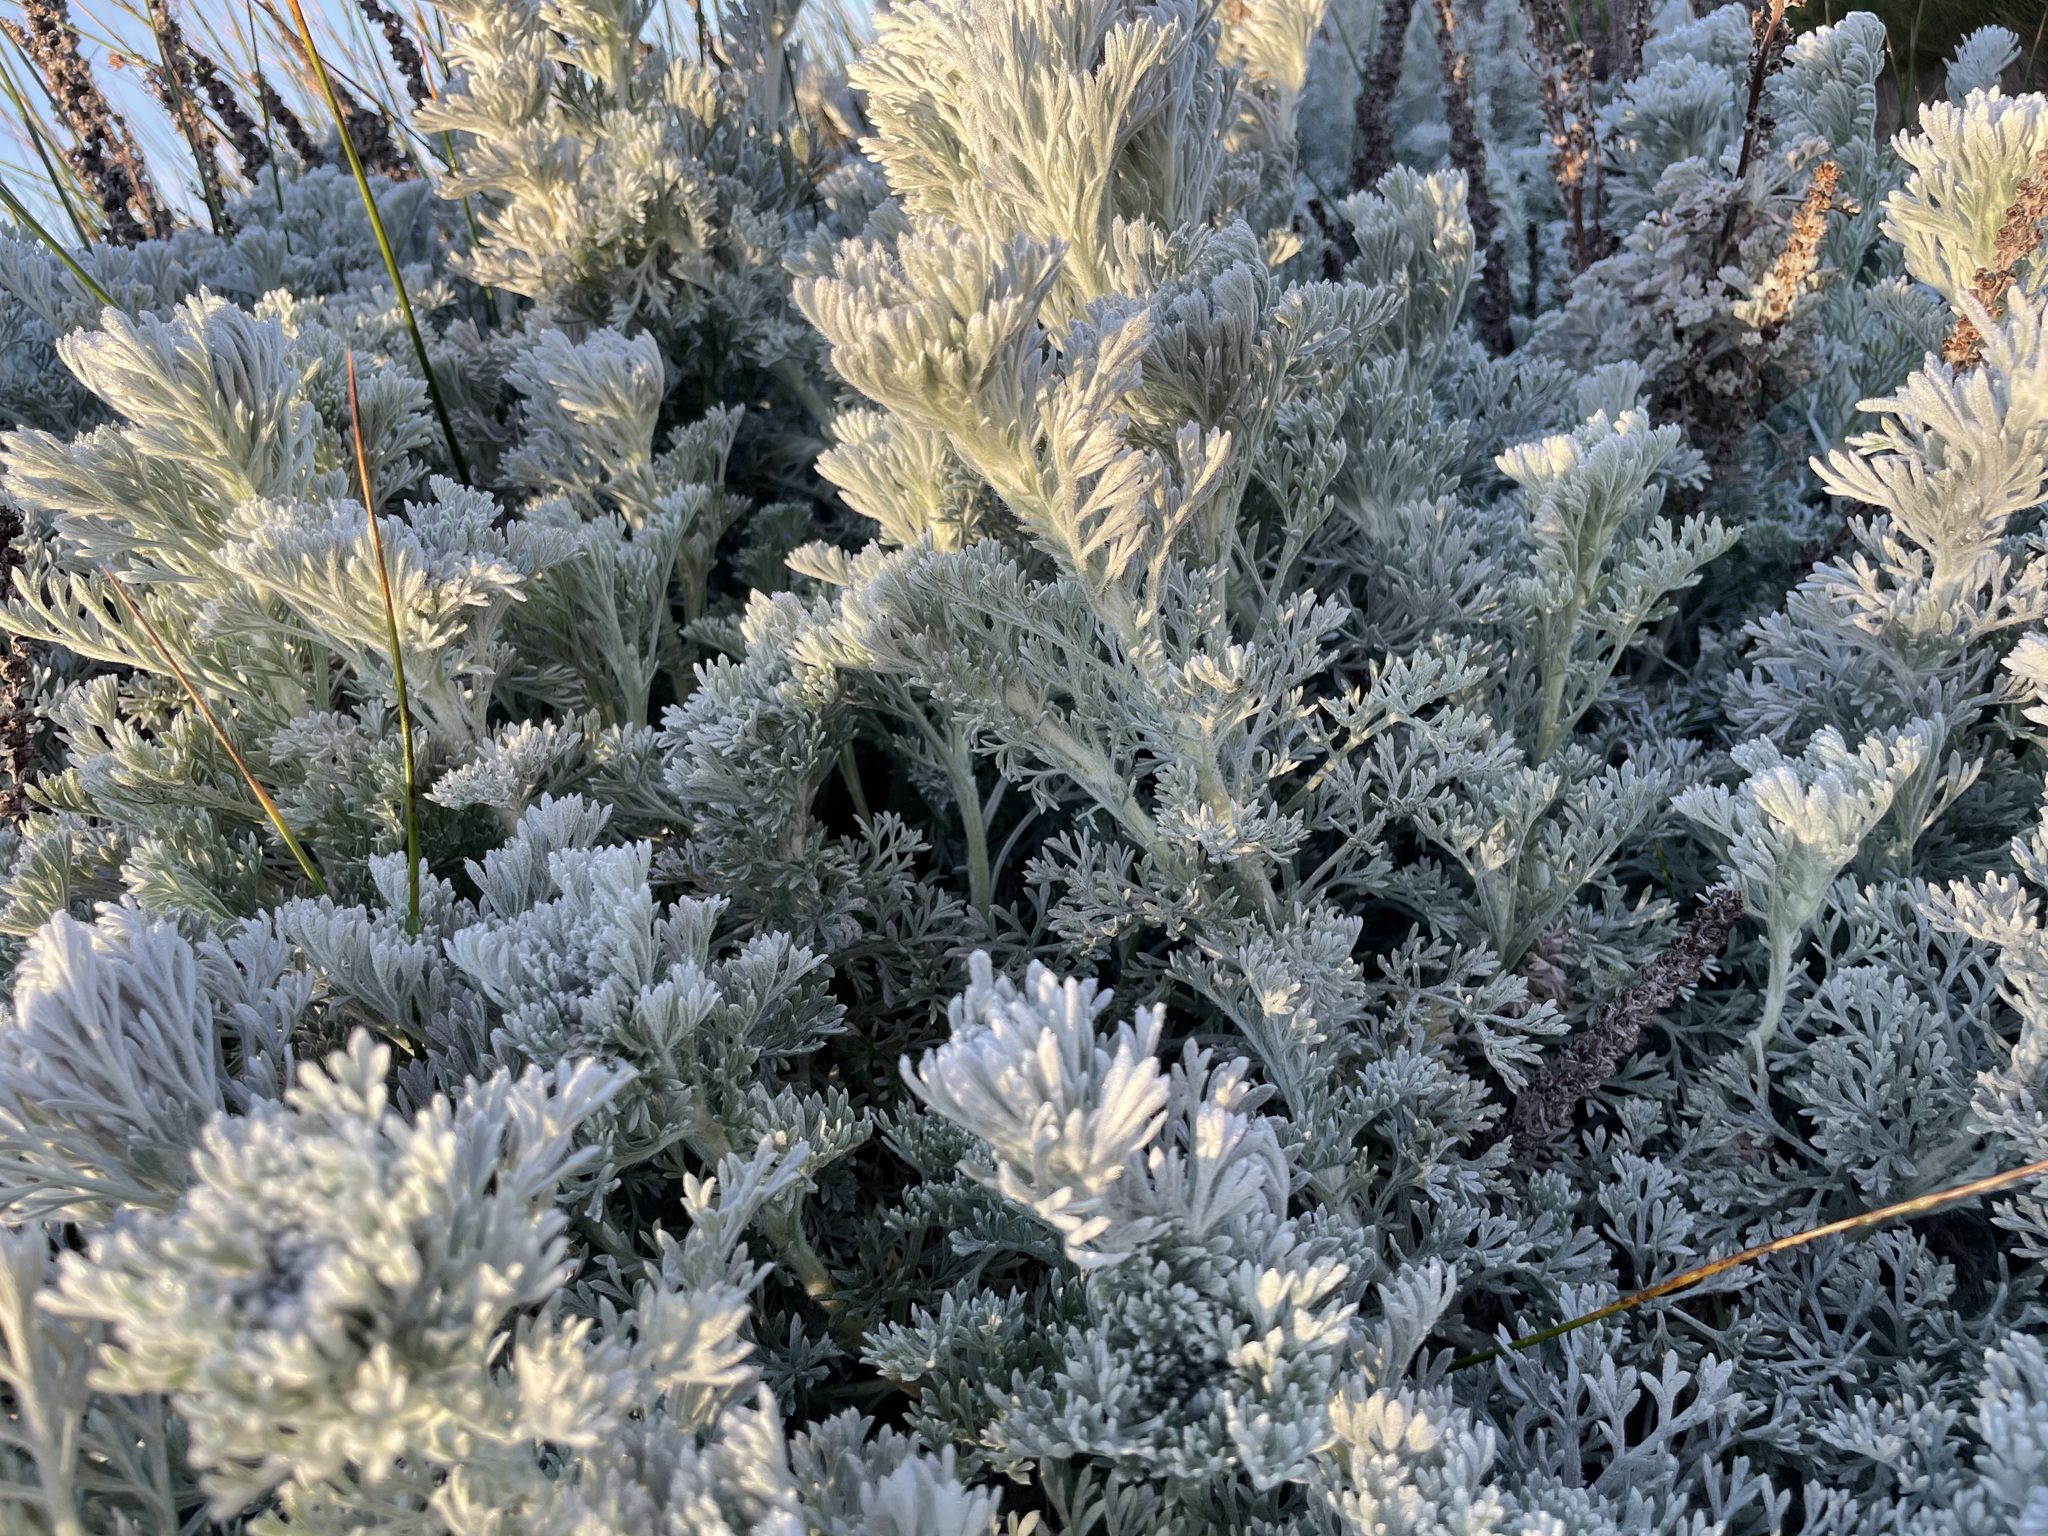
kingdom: Plantae
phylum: Tracheophyta
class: Magnoliopsida
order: Asterales
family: Asteraceae
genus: Artemisia
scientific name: Artemisia pycnocephala
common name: Coastal sagewort
